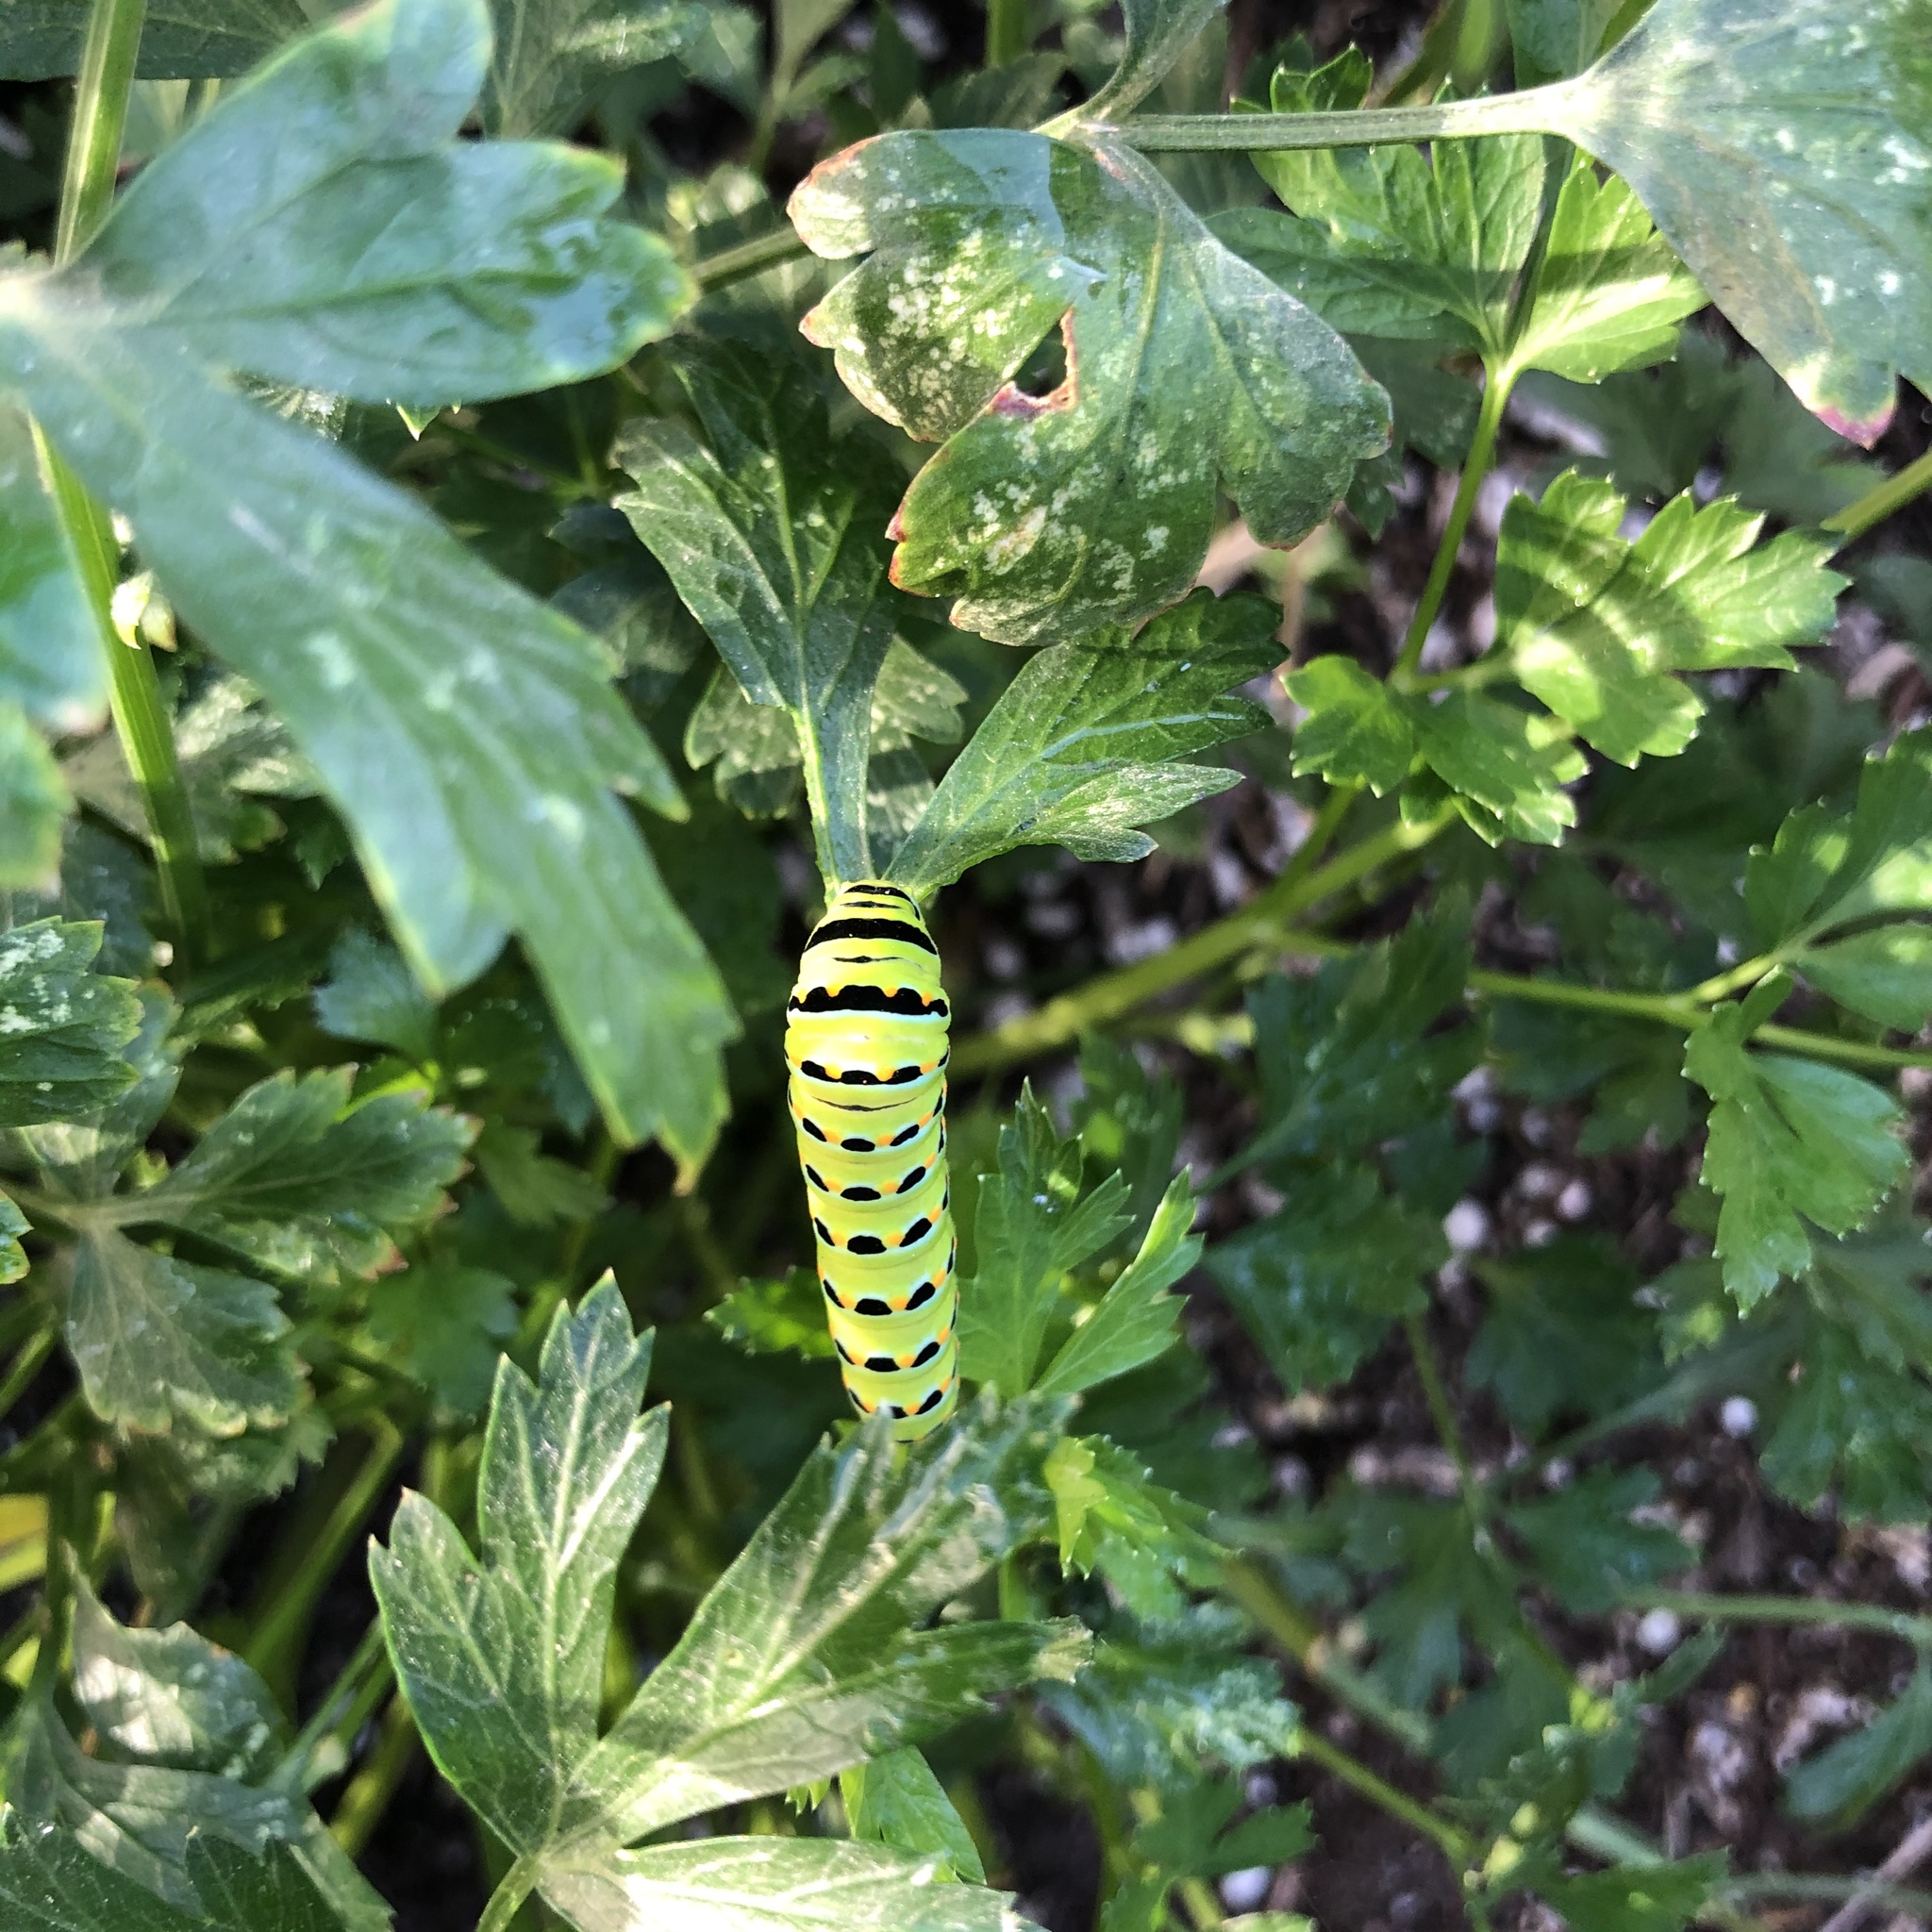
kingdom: Animalia
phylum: Arthropoda
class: Insecta
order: Lepidoptera
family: Papilionidae
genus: Papilio
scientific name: Papilio zelicaon
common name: Anise swallowtail
